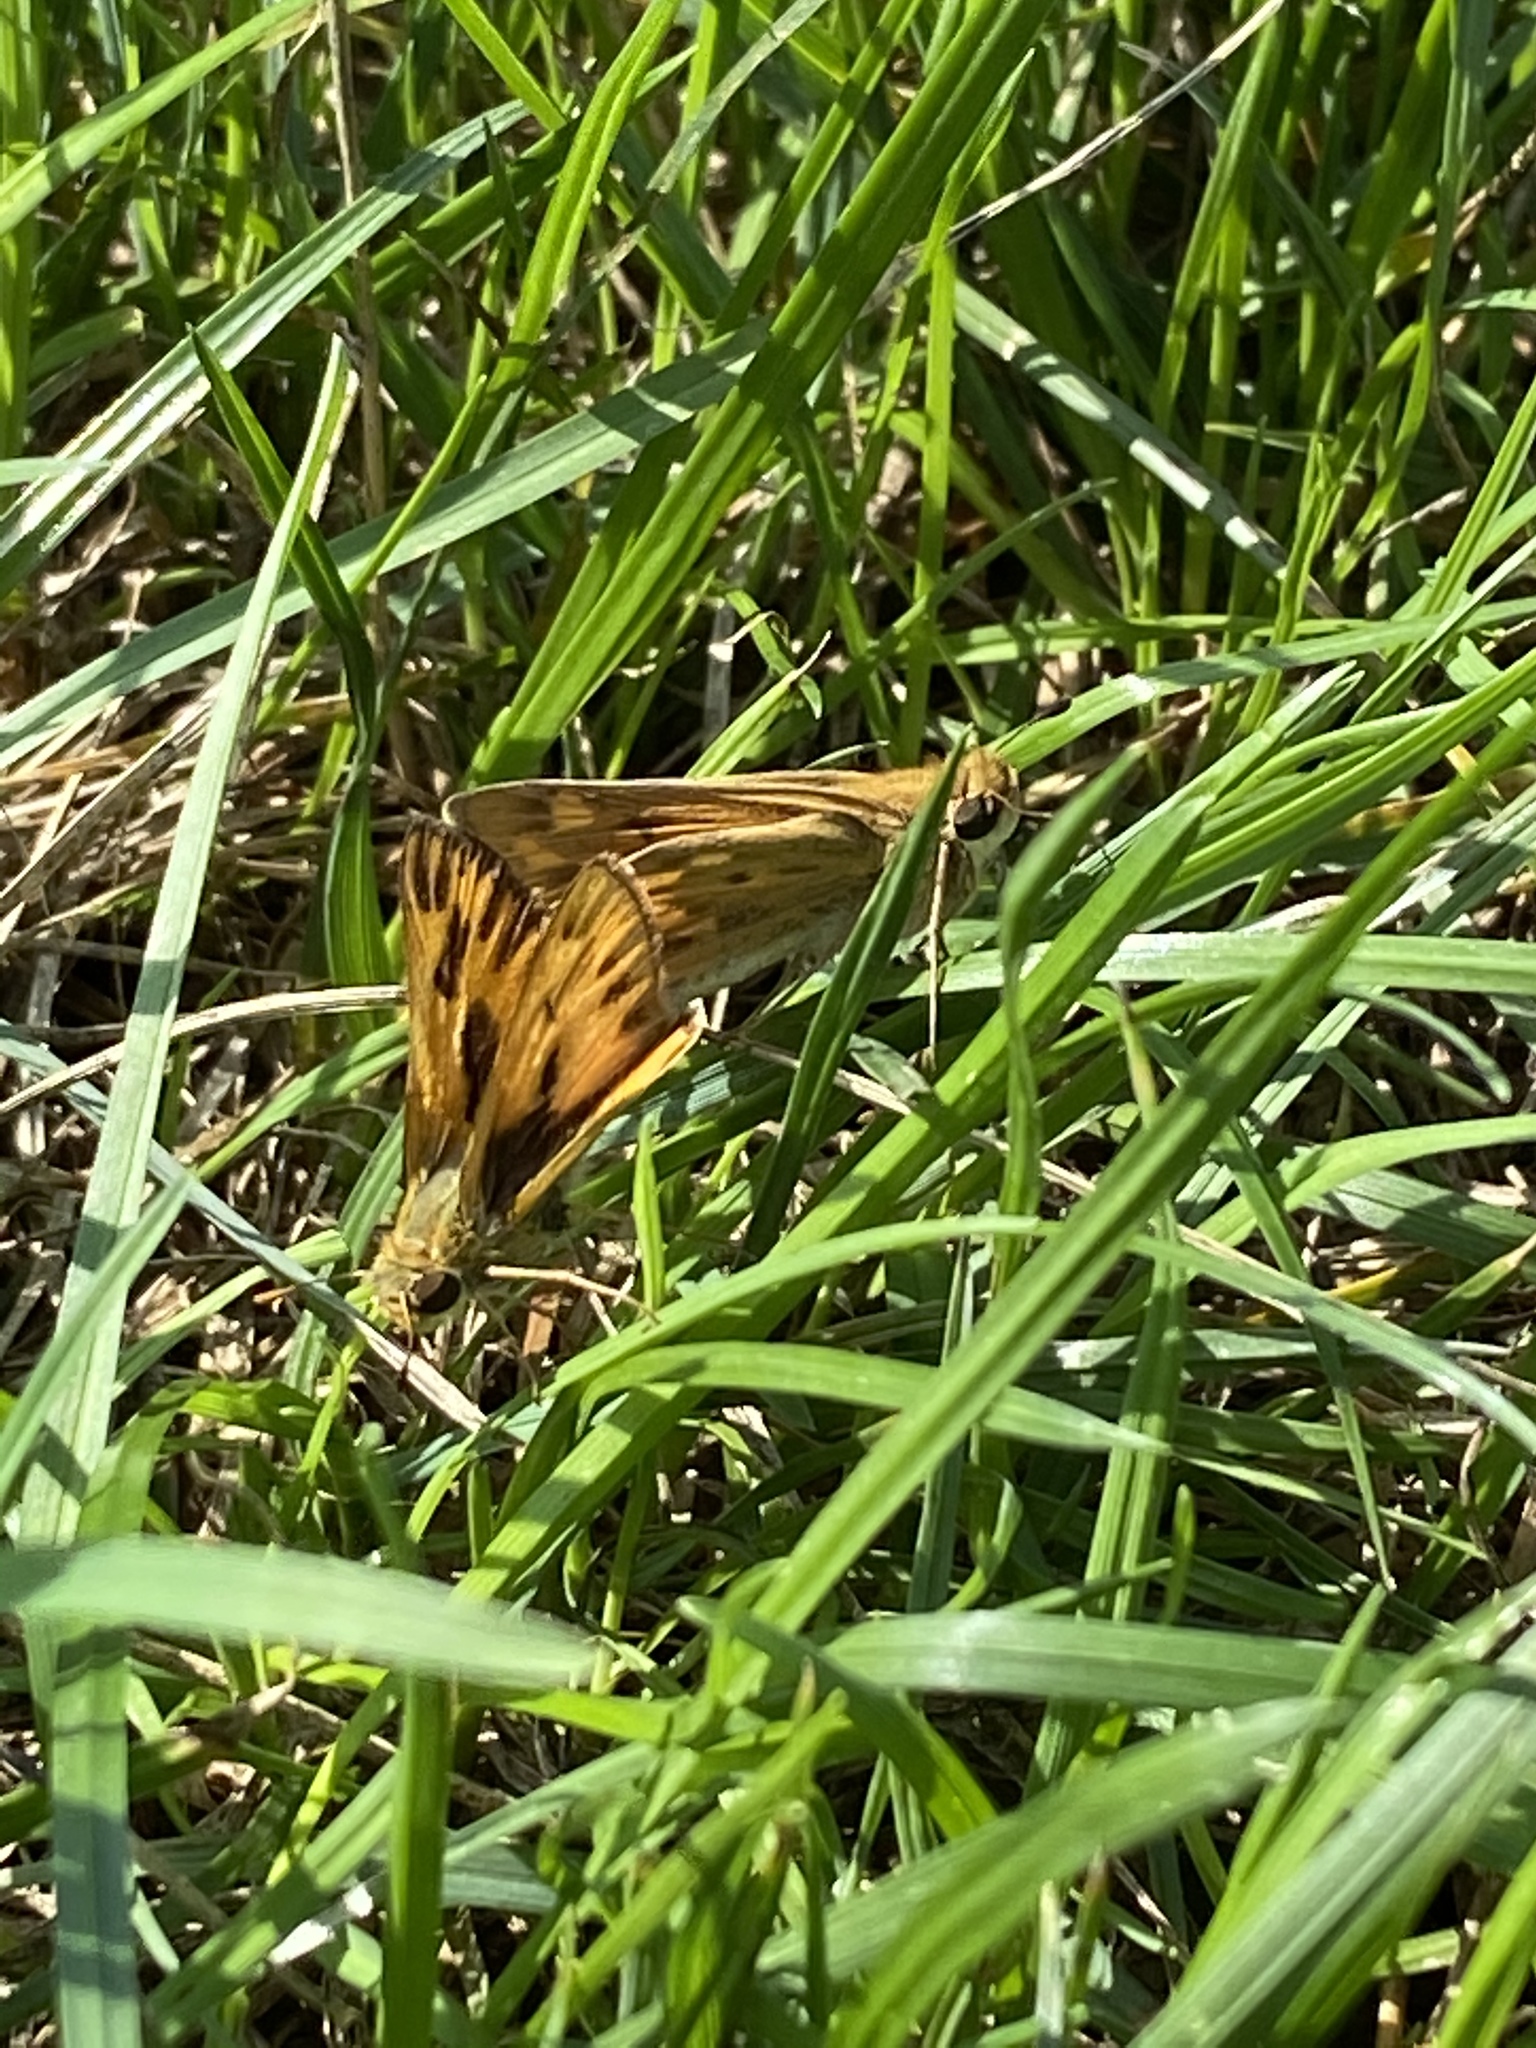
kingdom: Animalia
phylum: Arthropoda
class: Insecta
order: Lepidoptera
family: Hesperiidae
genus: Hylephila
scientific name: Hylephila phyleus
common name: Fiery skipper
